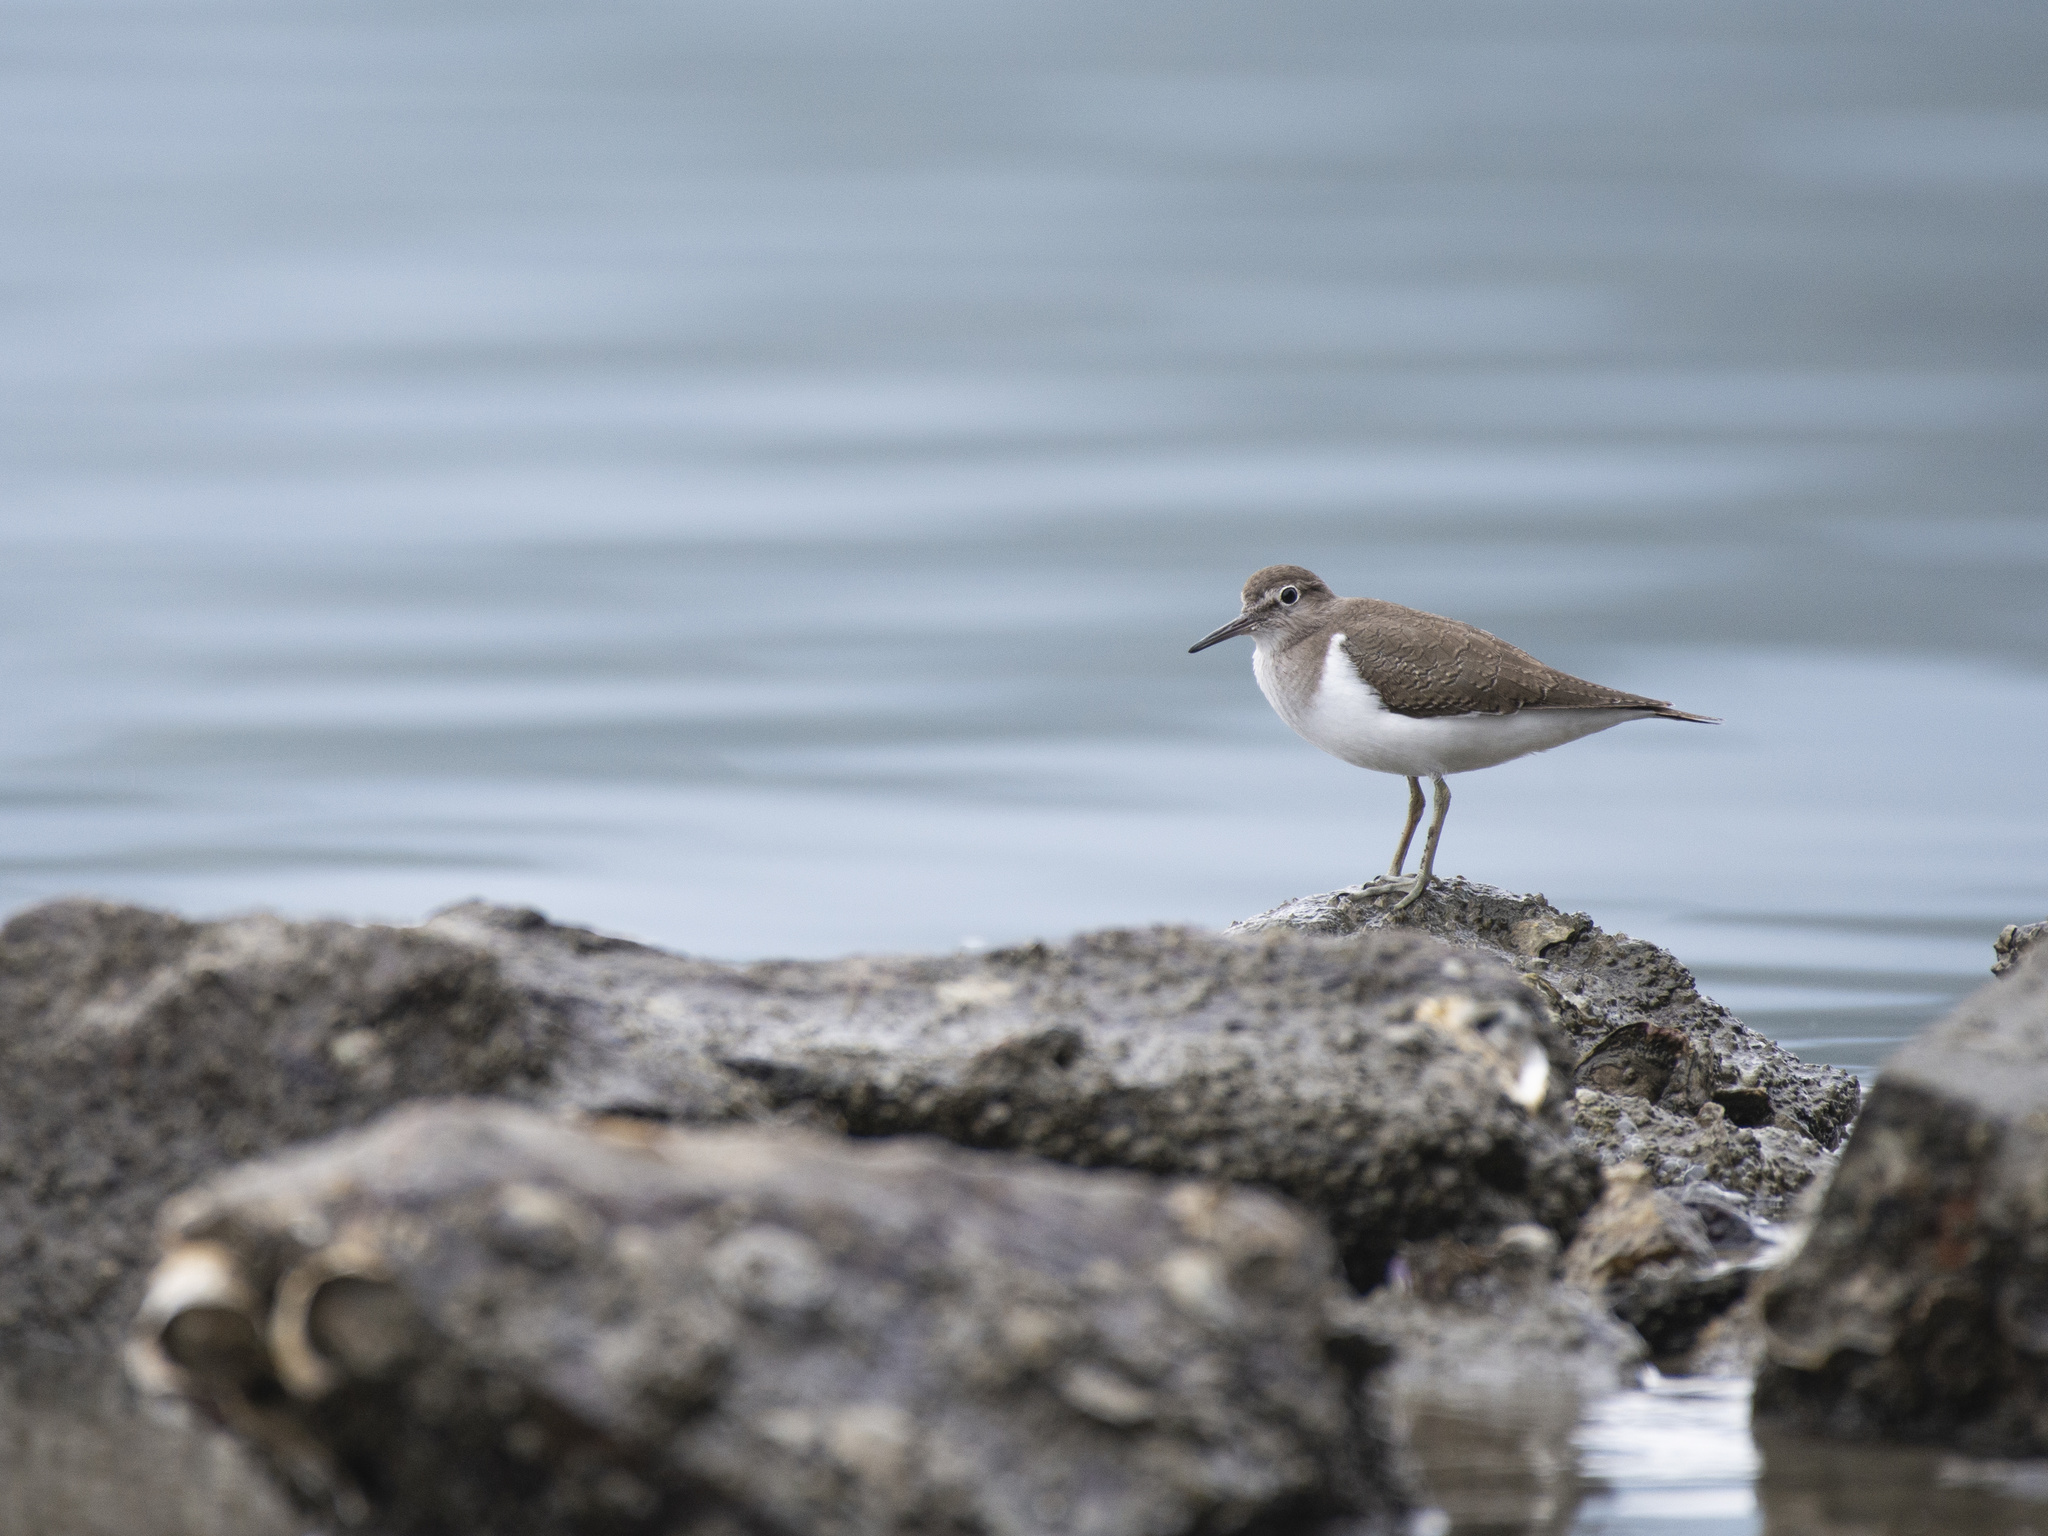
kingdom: Animalia
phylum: Chordata
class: Aves
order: Charadriiformes
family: Scolopacidae
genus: Actitis
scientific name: Actitis hypoleucos
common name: Common sandpiper
